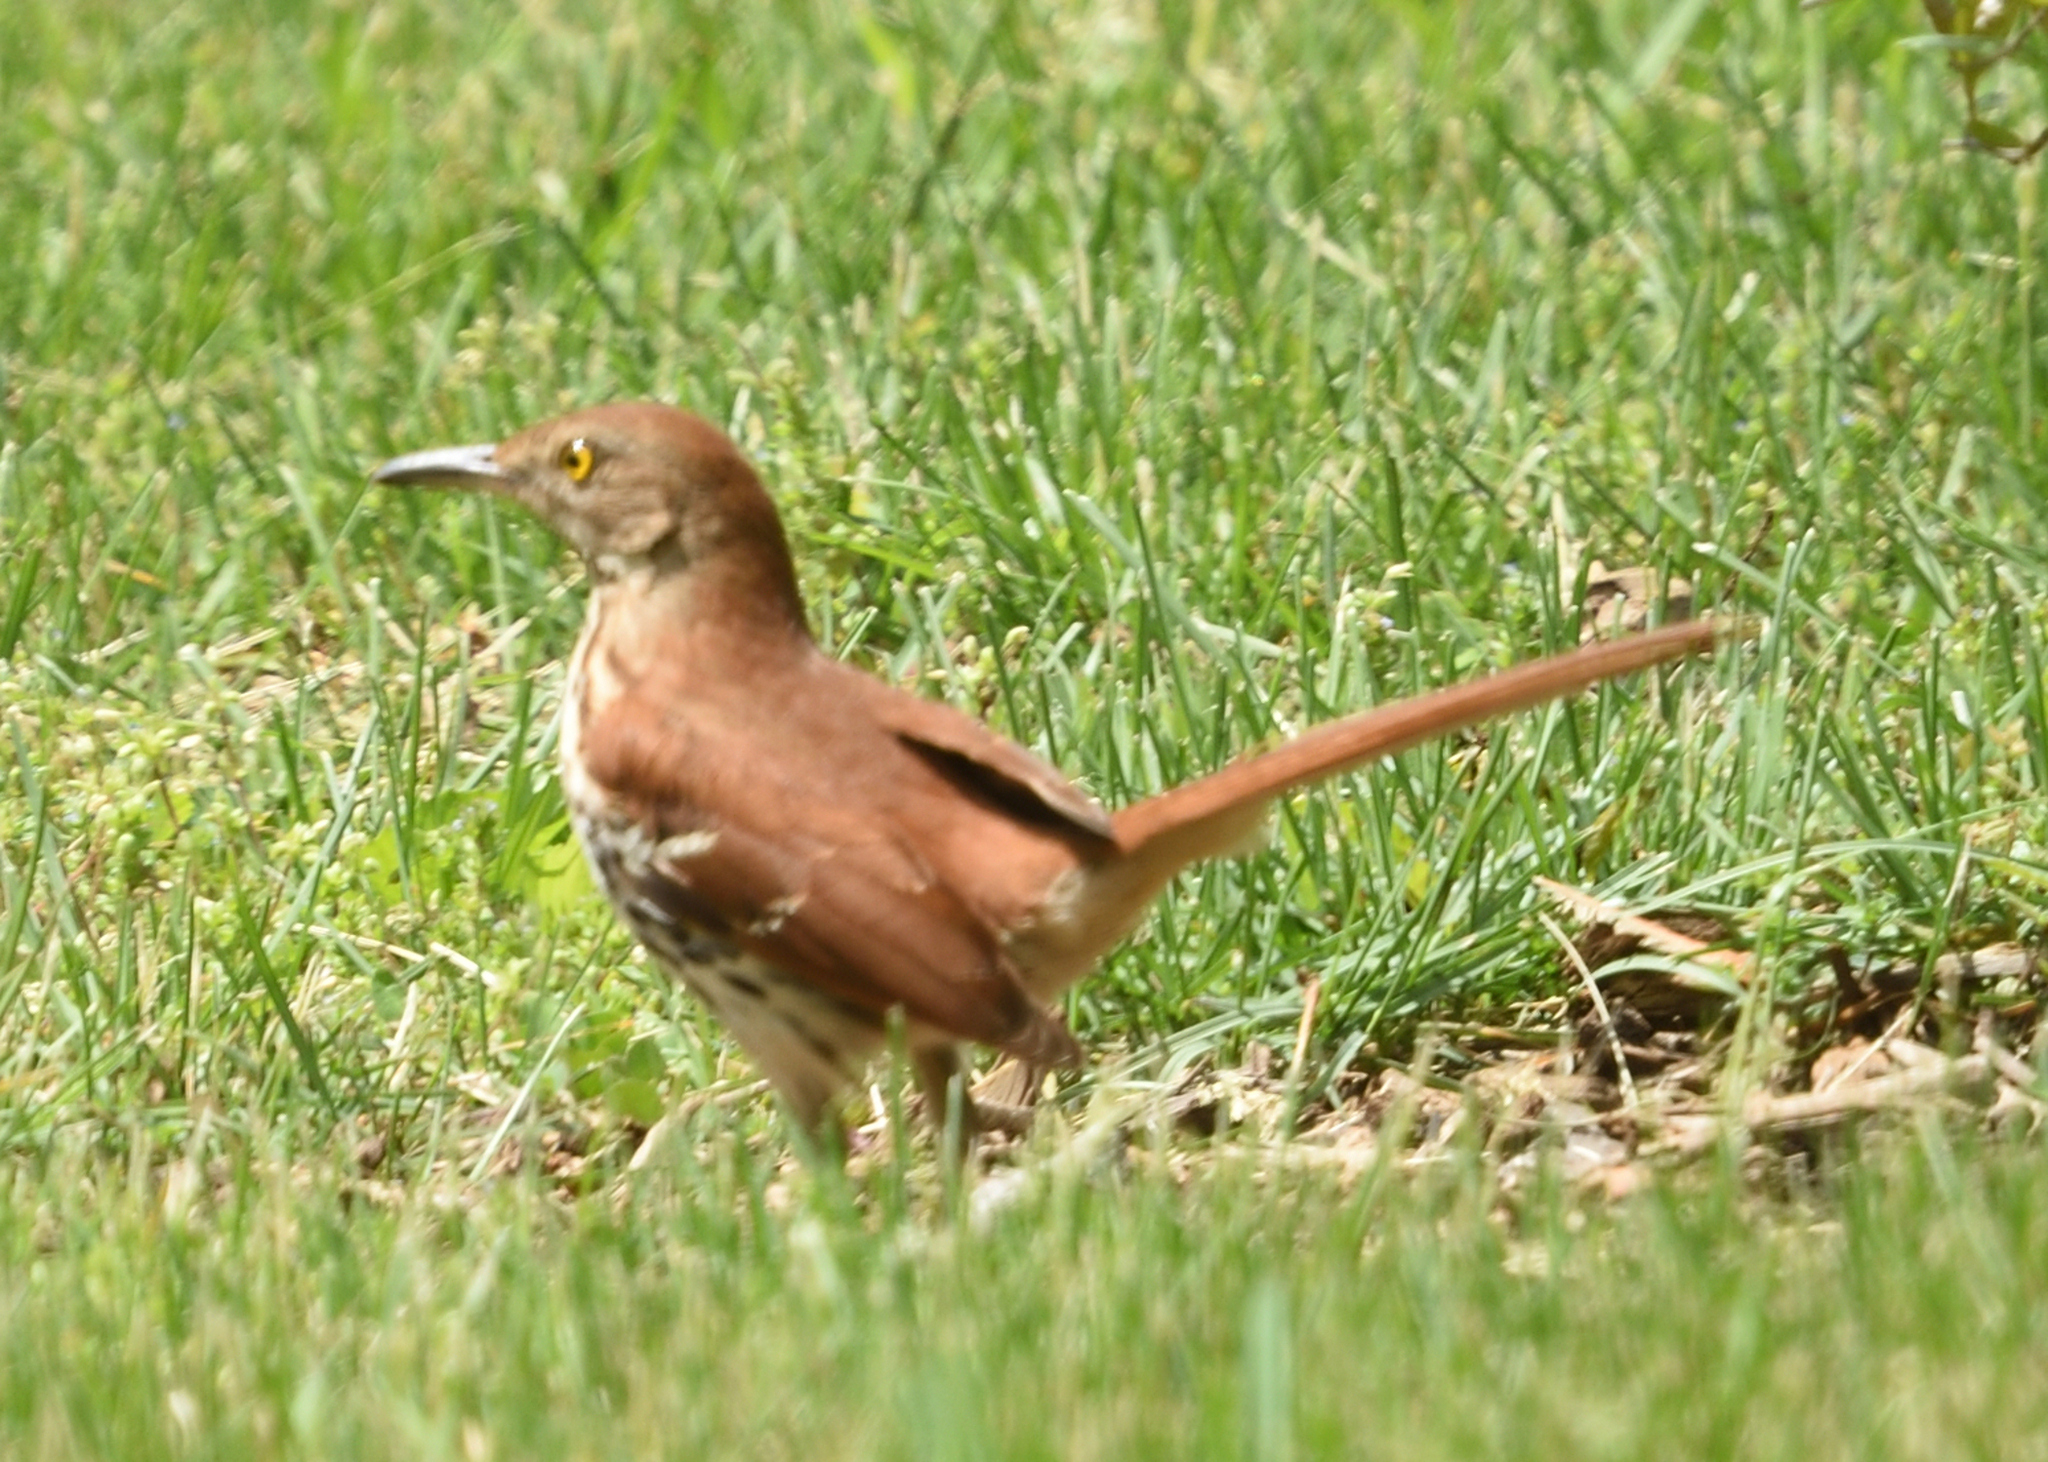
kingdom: Animalia
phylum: Chordata
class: Aves
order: Passeriformes
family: Mimidae
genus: Toxostoma
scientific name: Toxostoma rufum
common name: Brown thrasher
